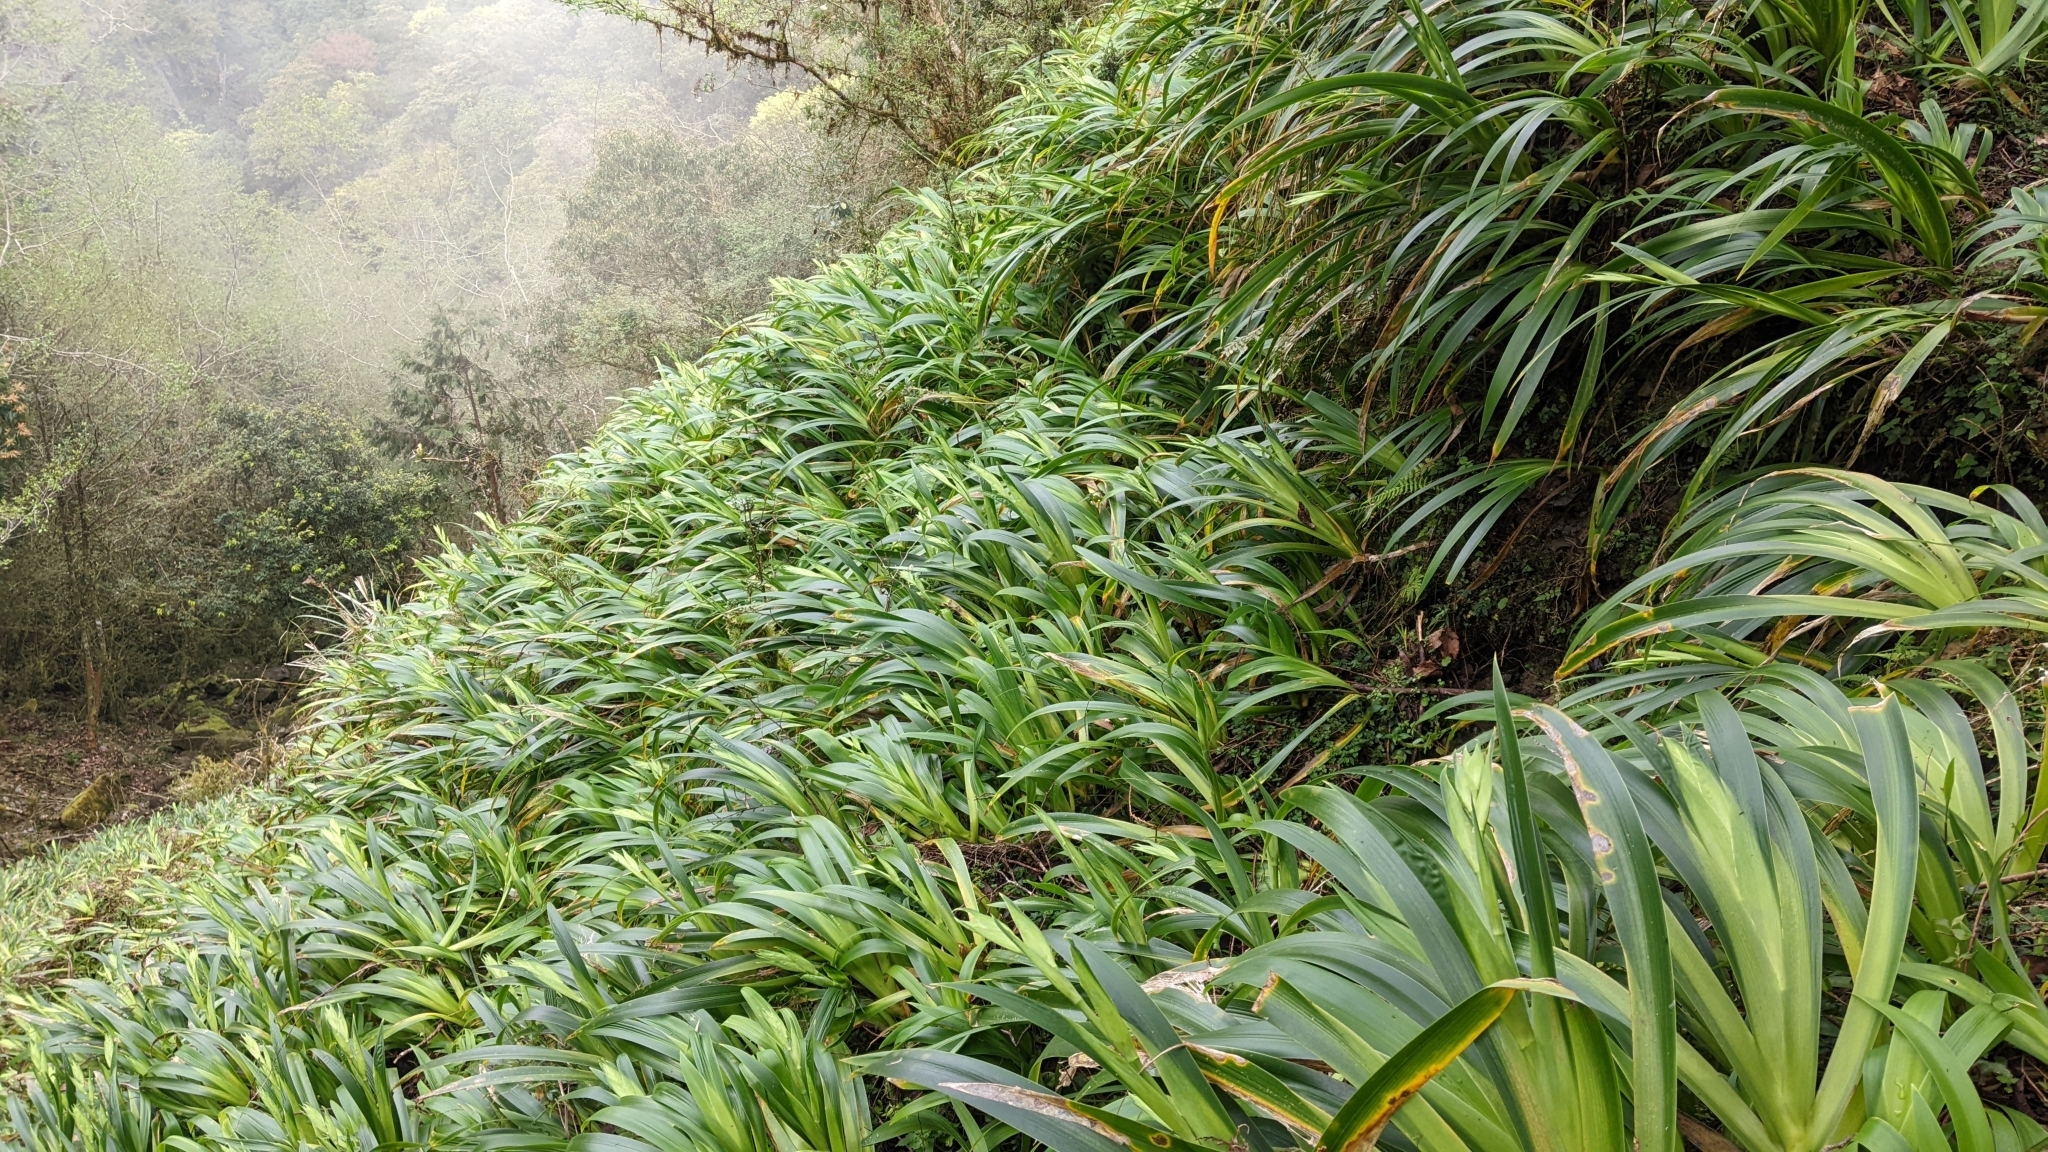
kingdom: Plantae
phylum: Tracheophyta
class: Liliopsida
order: Asparagales
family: Iridaceae
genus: Iris
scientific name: Iris formosana
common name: Taiwan iris
